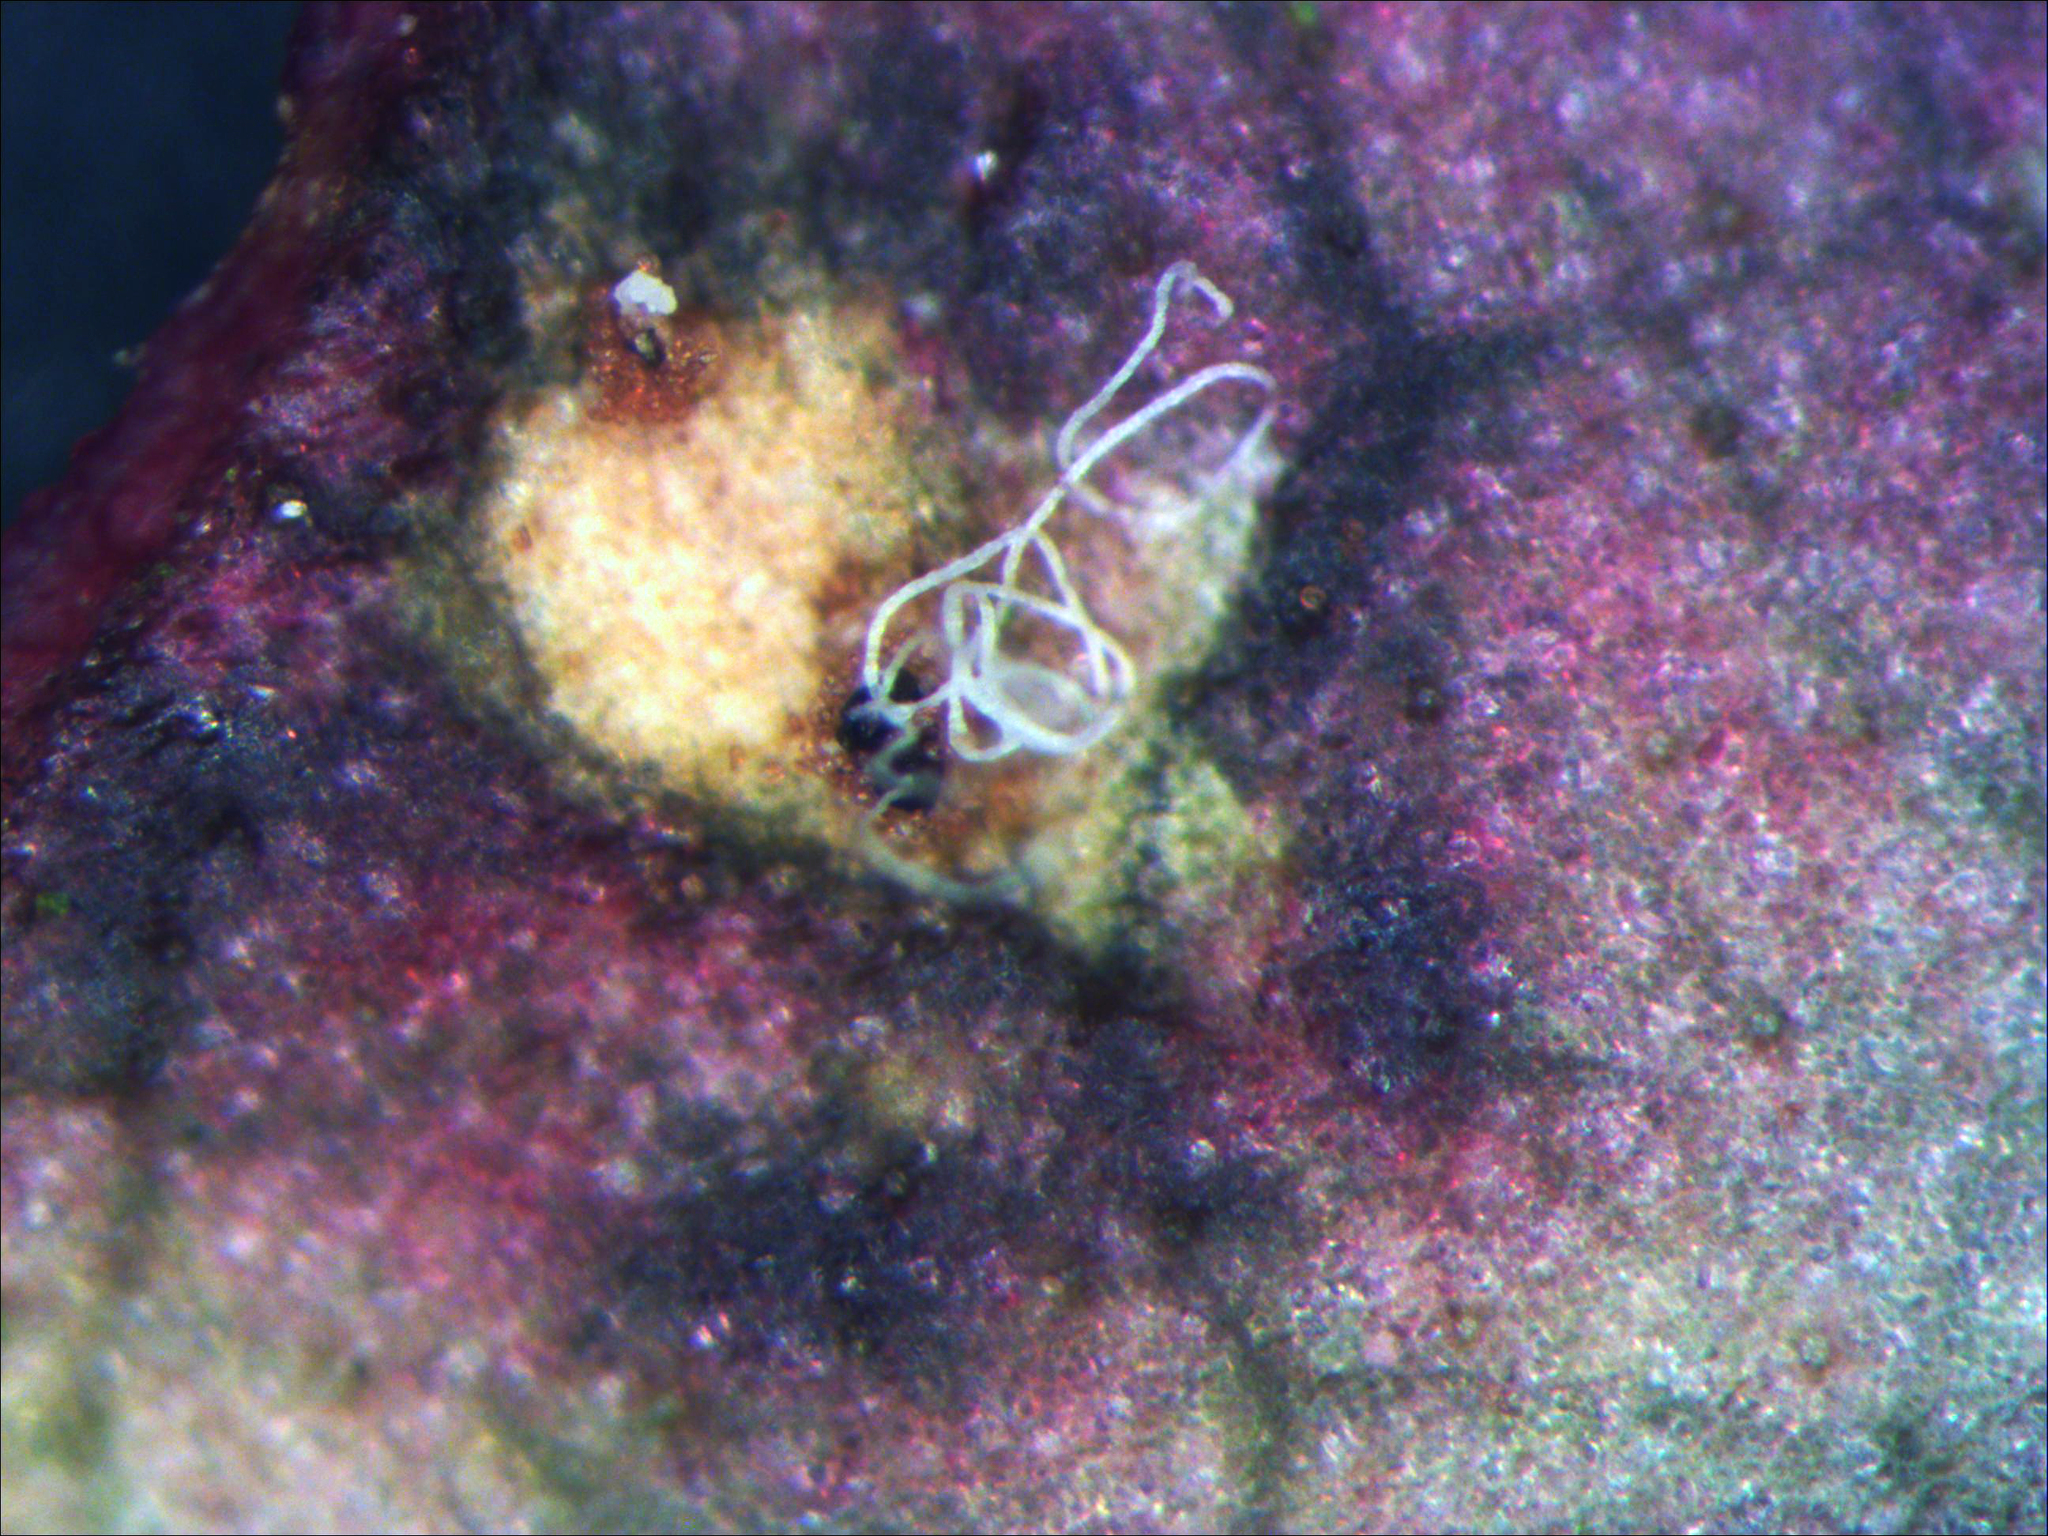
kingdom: Fungi
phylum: Ascomycota
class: Dothideomycetes
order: Pleosporales
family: Phaeosphaeriaceae
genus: Sphaerellopsis
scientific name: Sphaerellopsis filum
